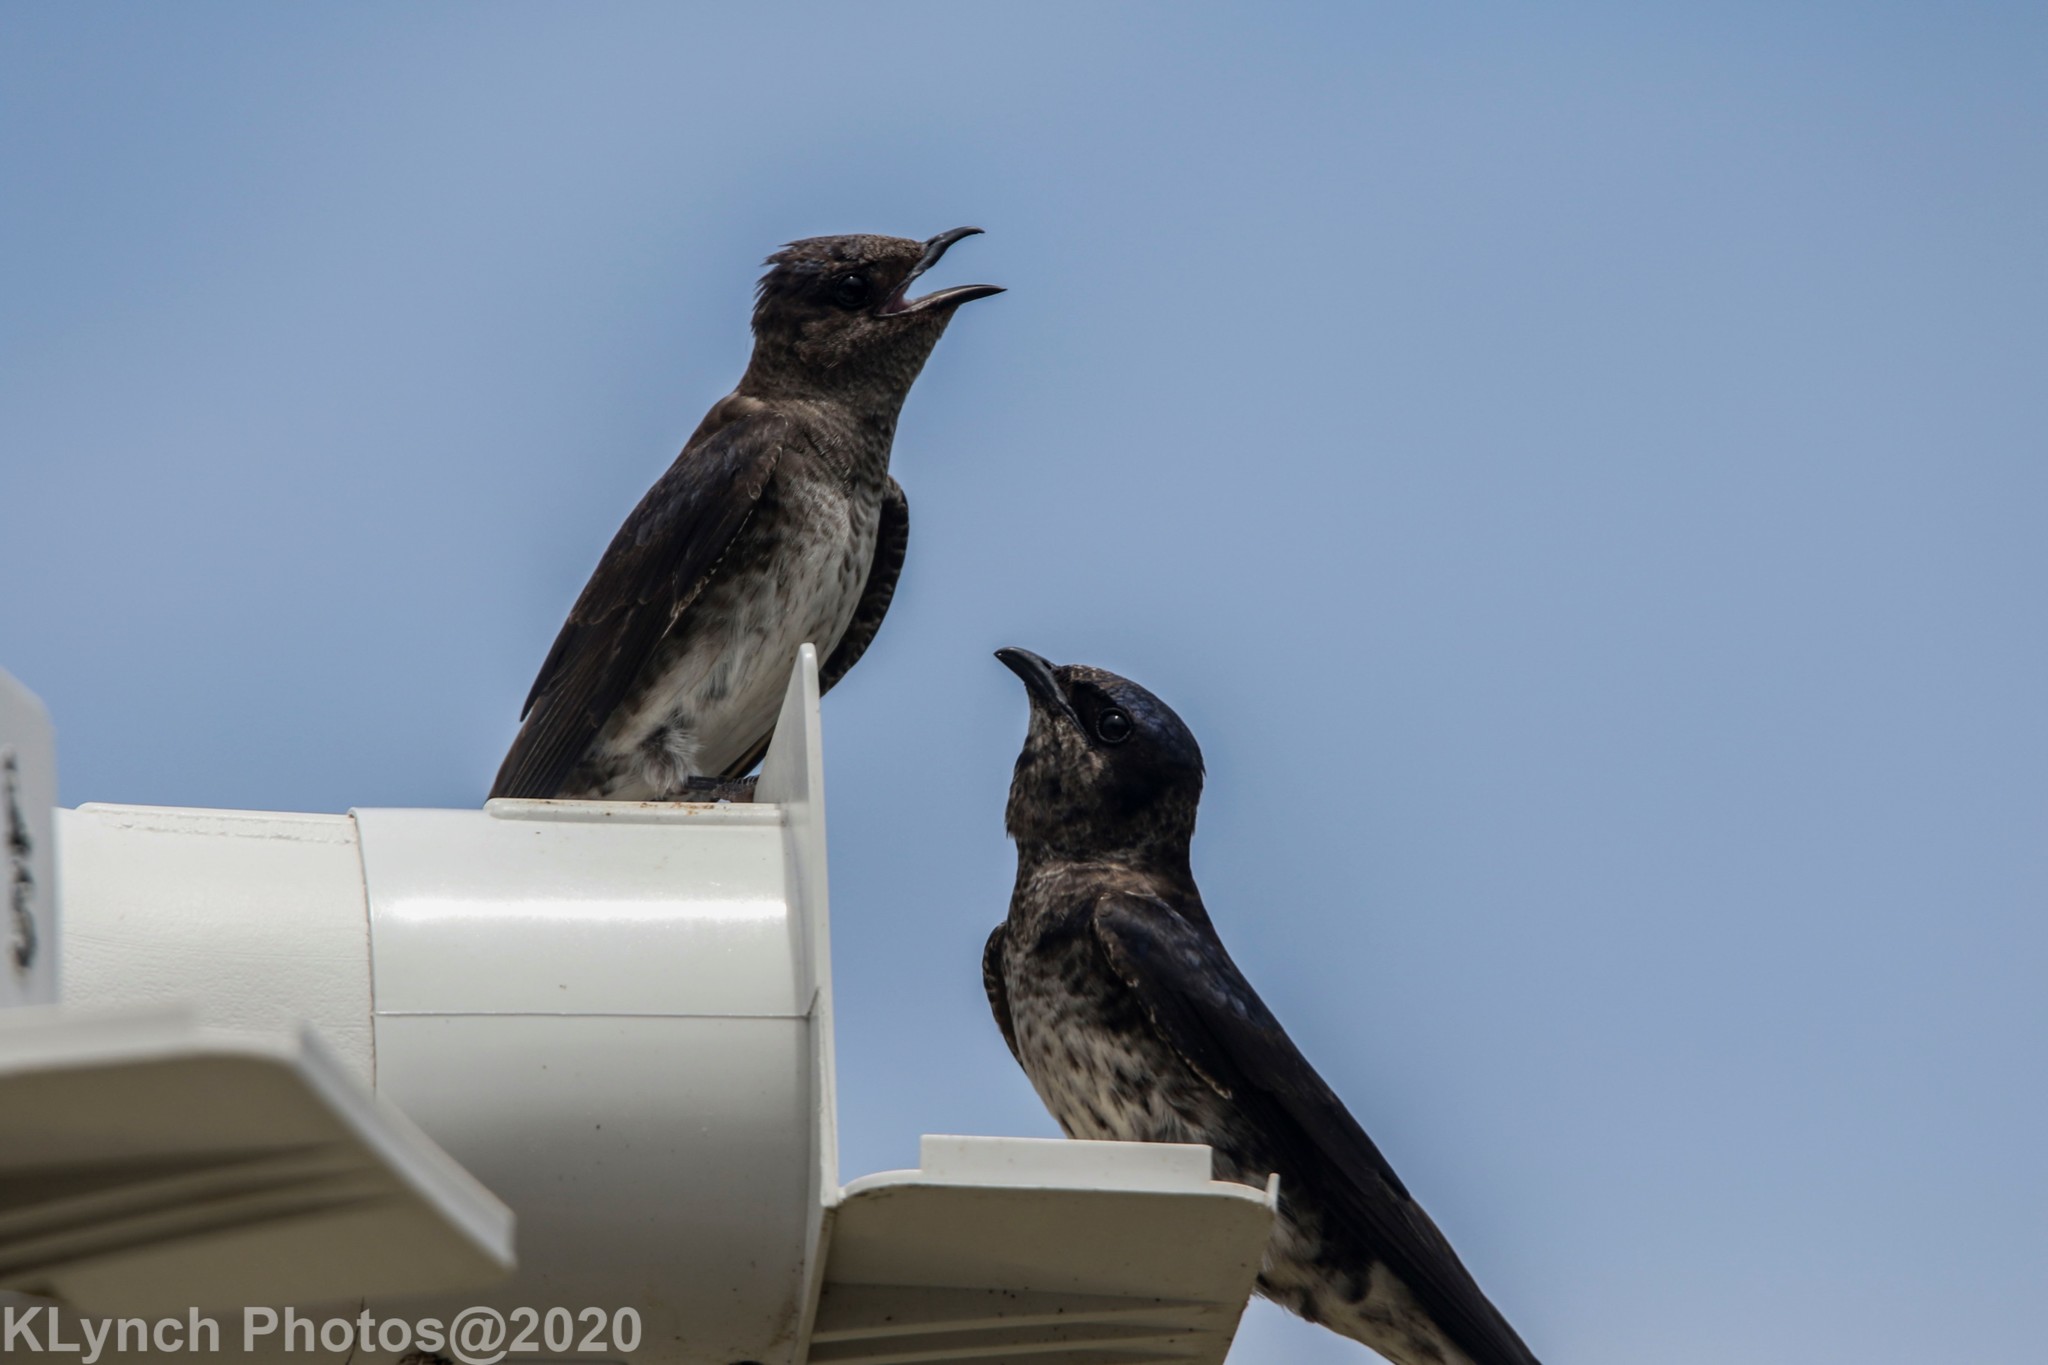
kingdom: Animalia
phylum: Chordata
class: Aves
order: Passeriformes
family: Hirundinidae
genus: Progne
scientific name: Progne subis
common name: Purple martin
